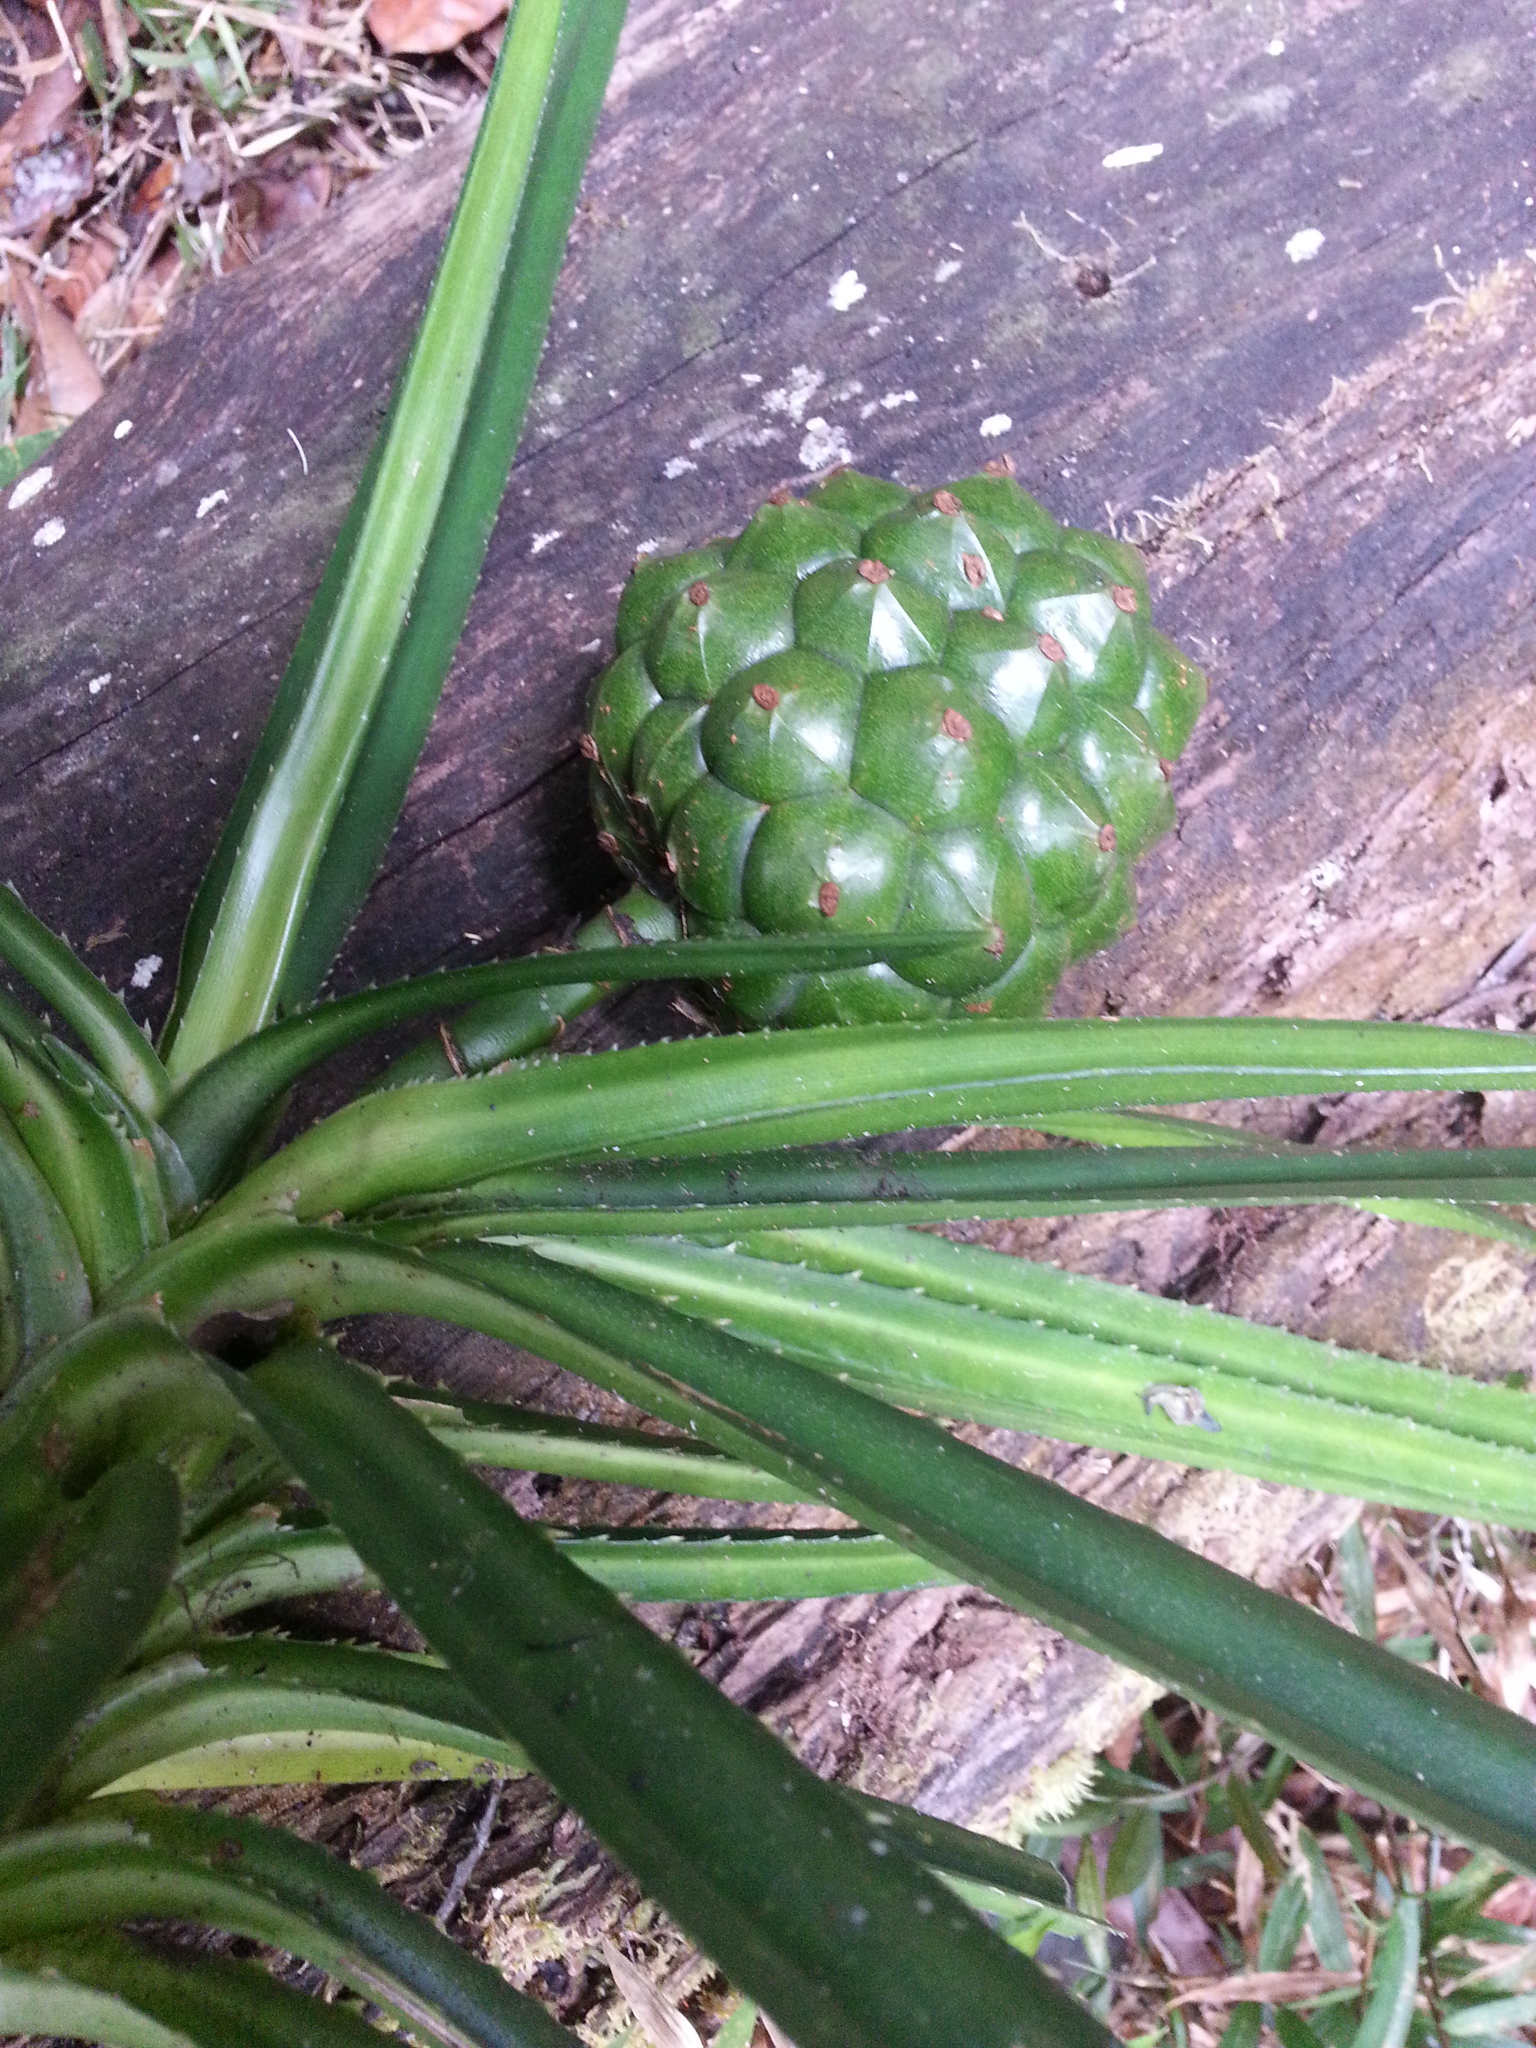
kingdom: Plantae
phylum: Tracheophyta
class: Liliopsida
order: Pandanales
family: Pandanaceae
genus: Pandanus
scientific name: Pandanus tsaratananensis
